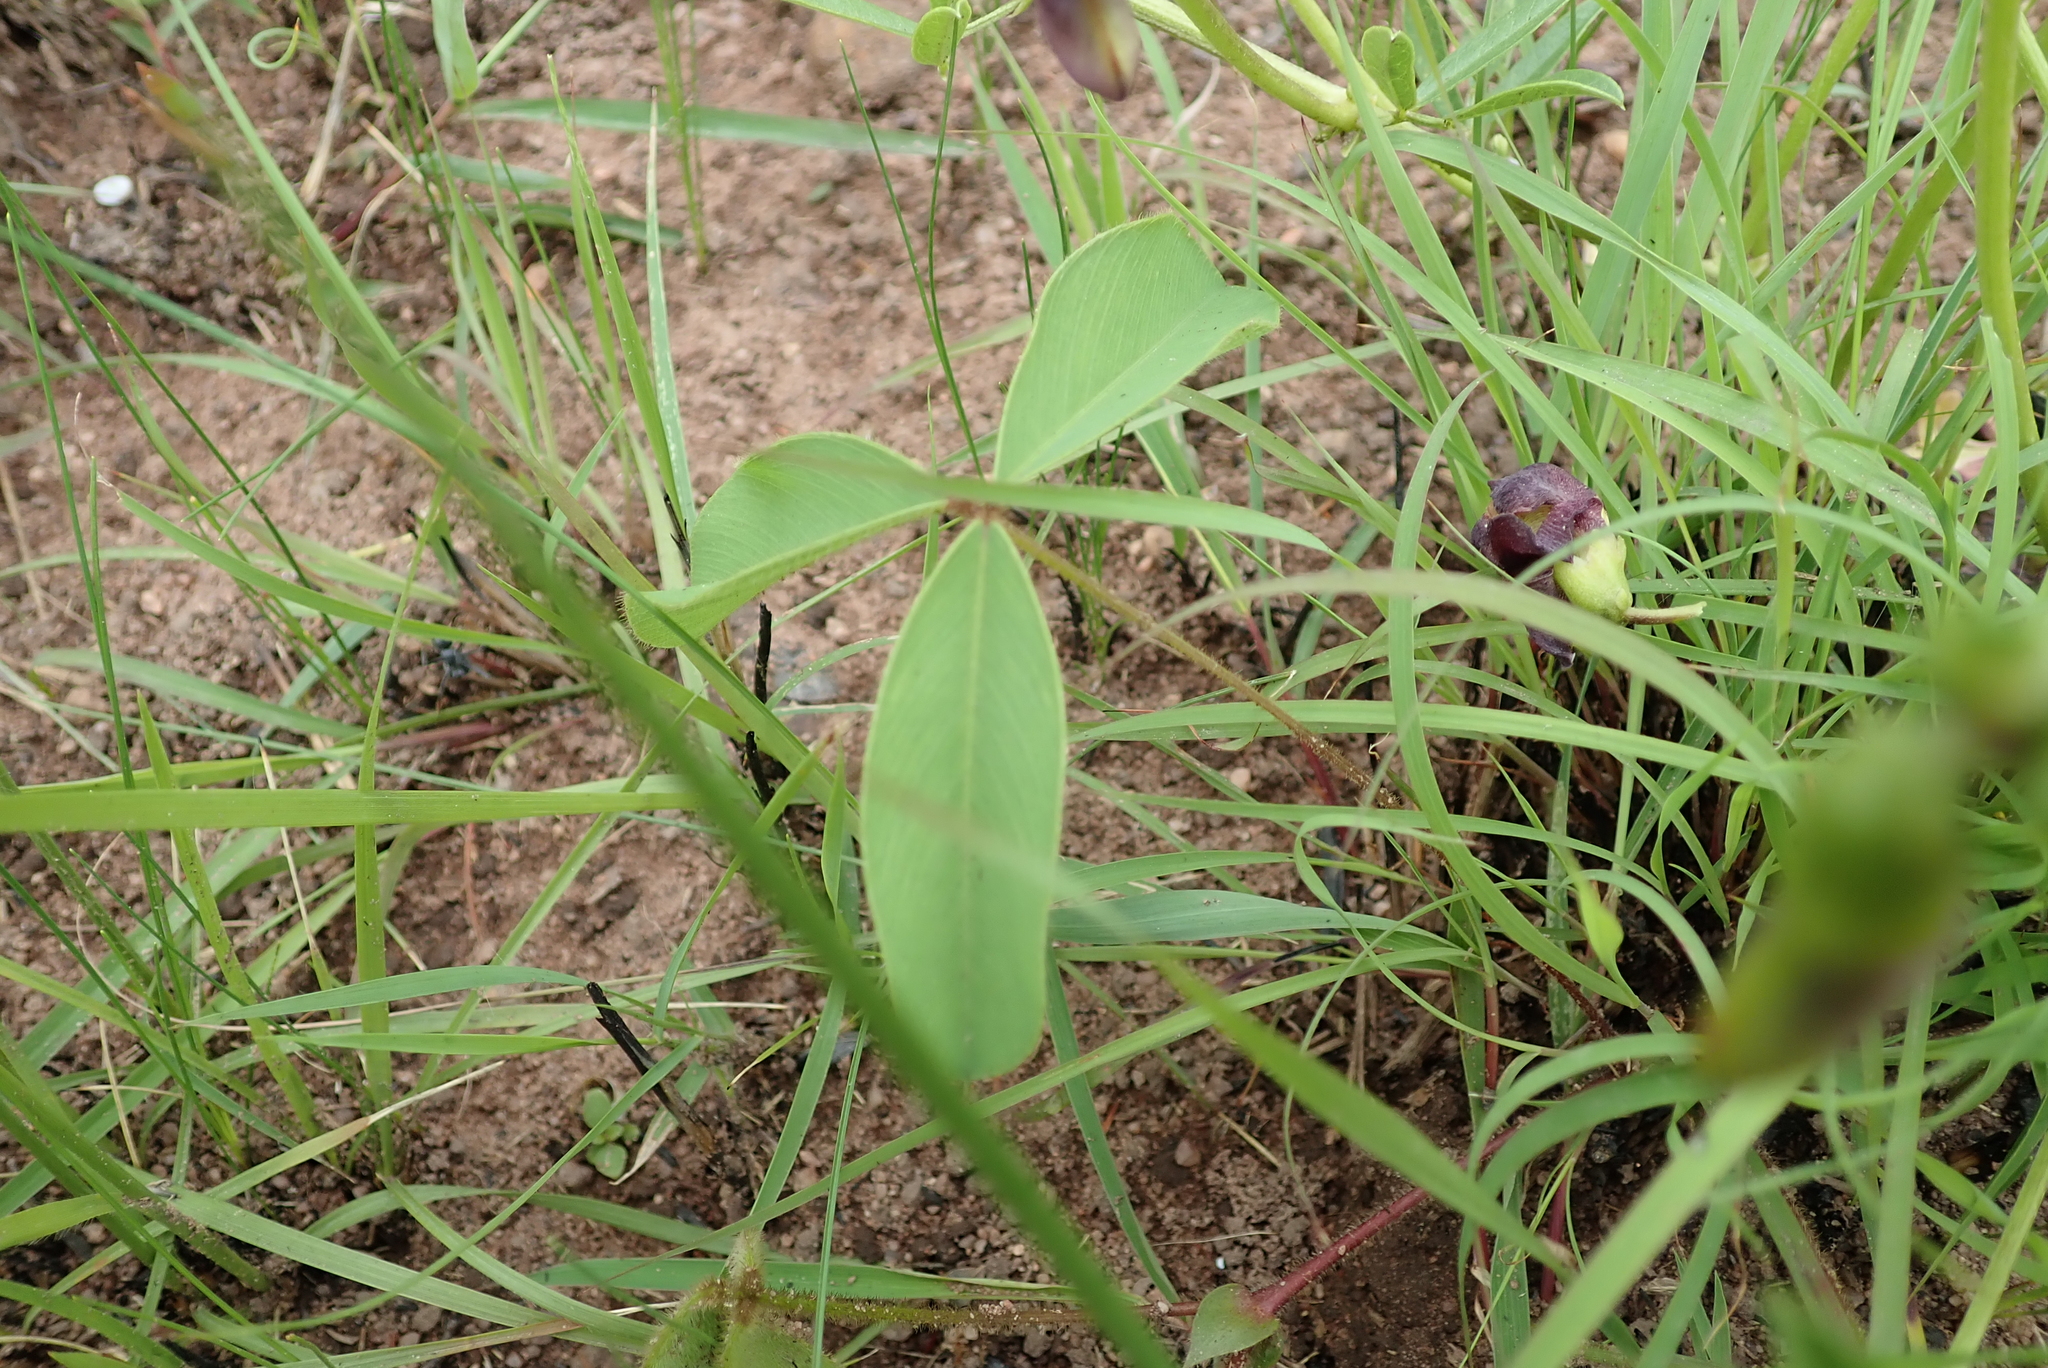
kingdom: Plantae
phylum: Tracheophyta
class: Magnoliopsida
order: Fabales
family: Fabaceae
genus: Sphenostylis
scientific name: Sphenostylis angustifolia
